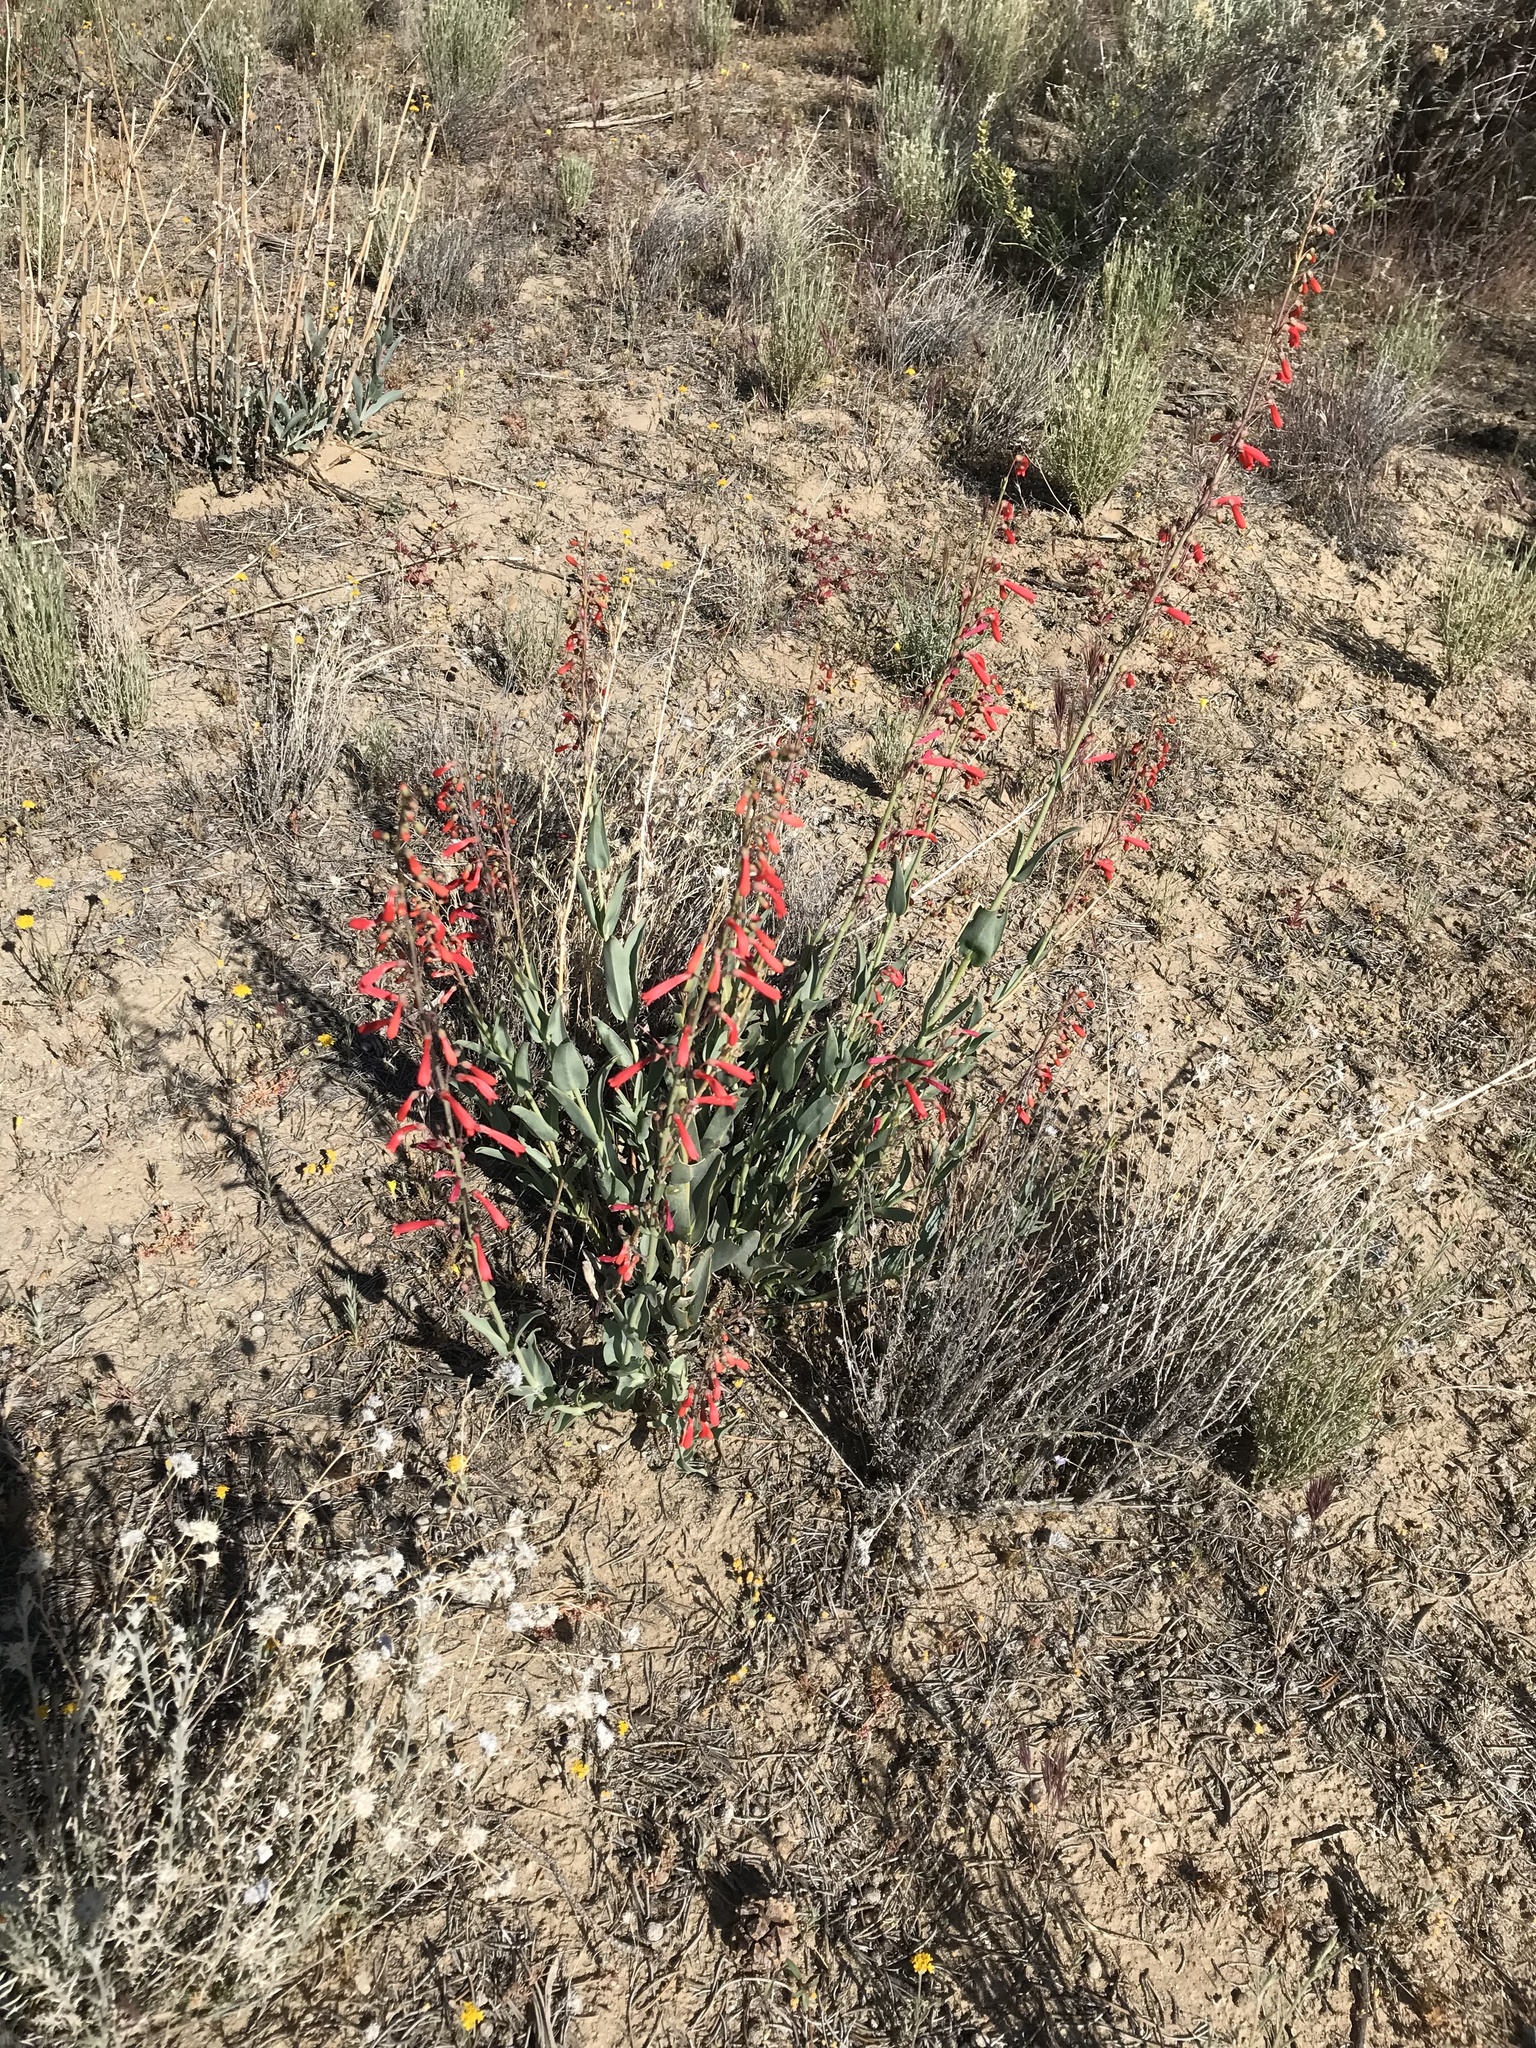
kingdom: Plantae
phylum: Tracheophyta
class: Magnoliopsida
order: Lamiales
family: Plantaginaceae
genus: Penstemon
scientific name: Penstemon centranthifolius
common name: Scarlet bugler
